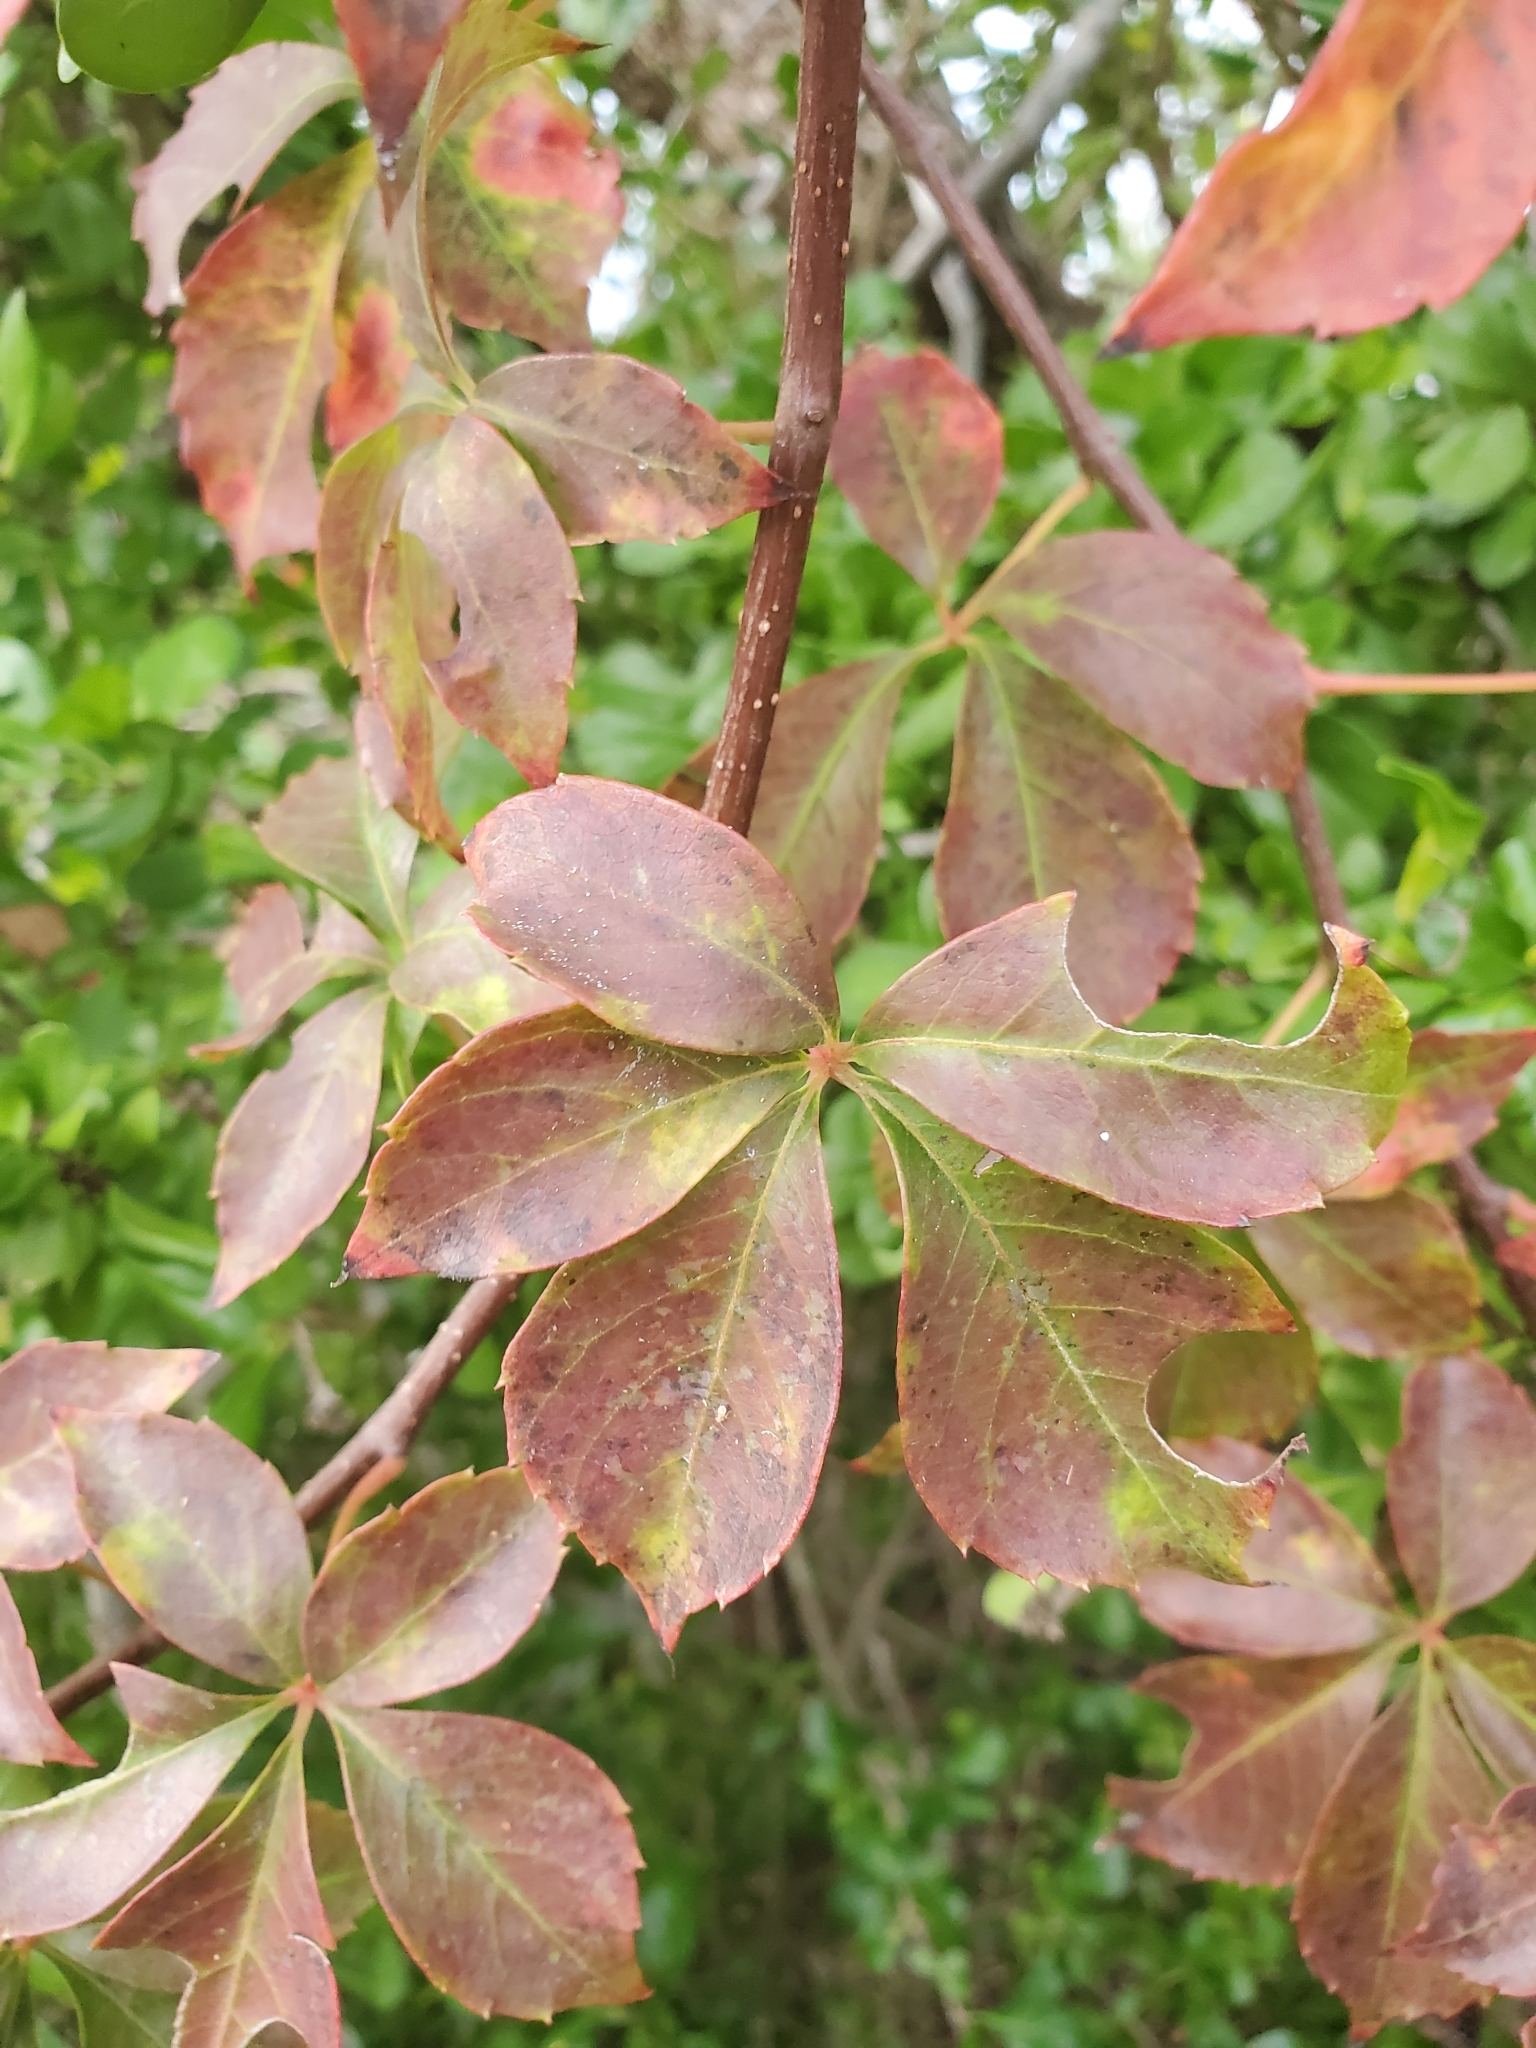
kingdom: Plantae
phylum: Tracheophyta
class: Magnoliopsida
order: Vitales
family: Vitaceae
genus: Parthenocissus
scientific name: Parthenocissus quinquefolia
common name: Virginia-creeper
